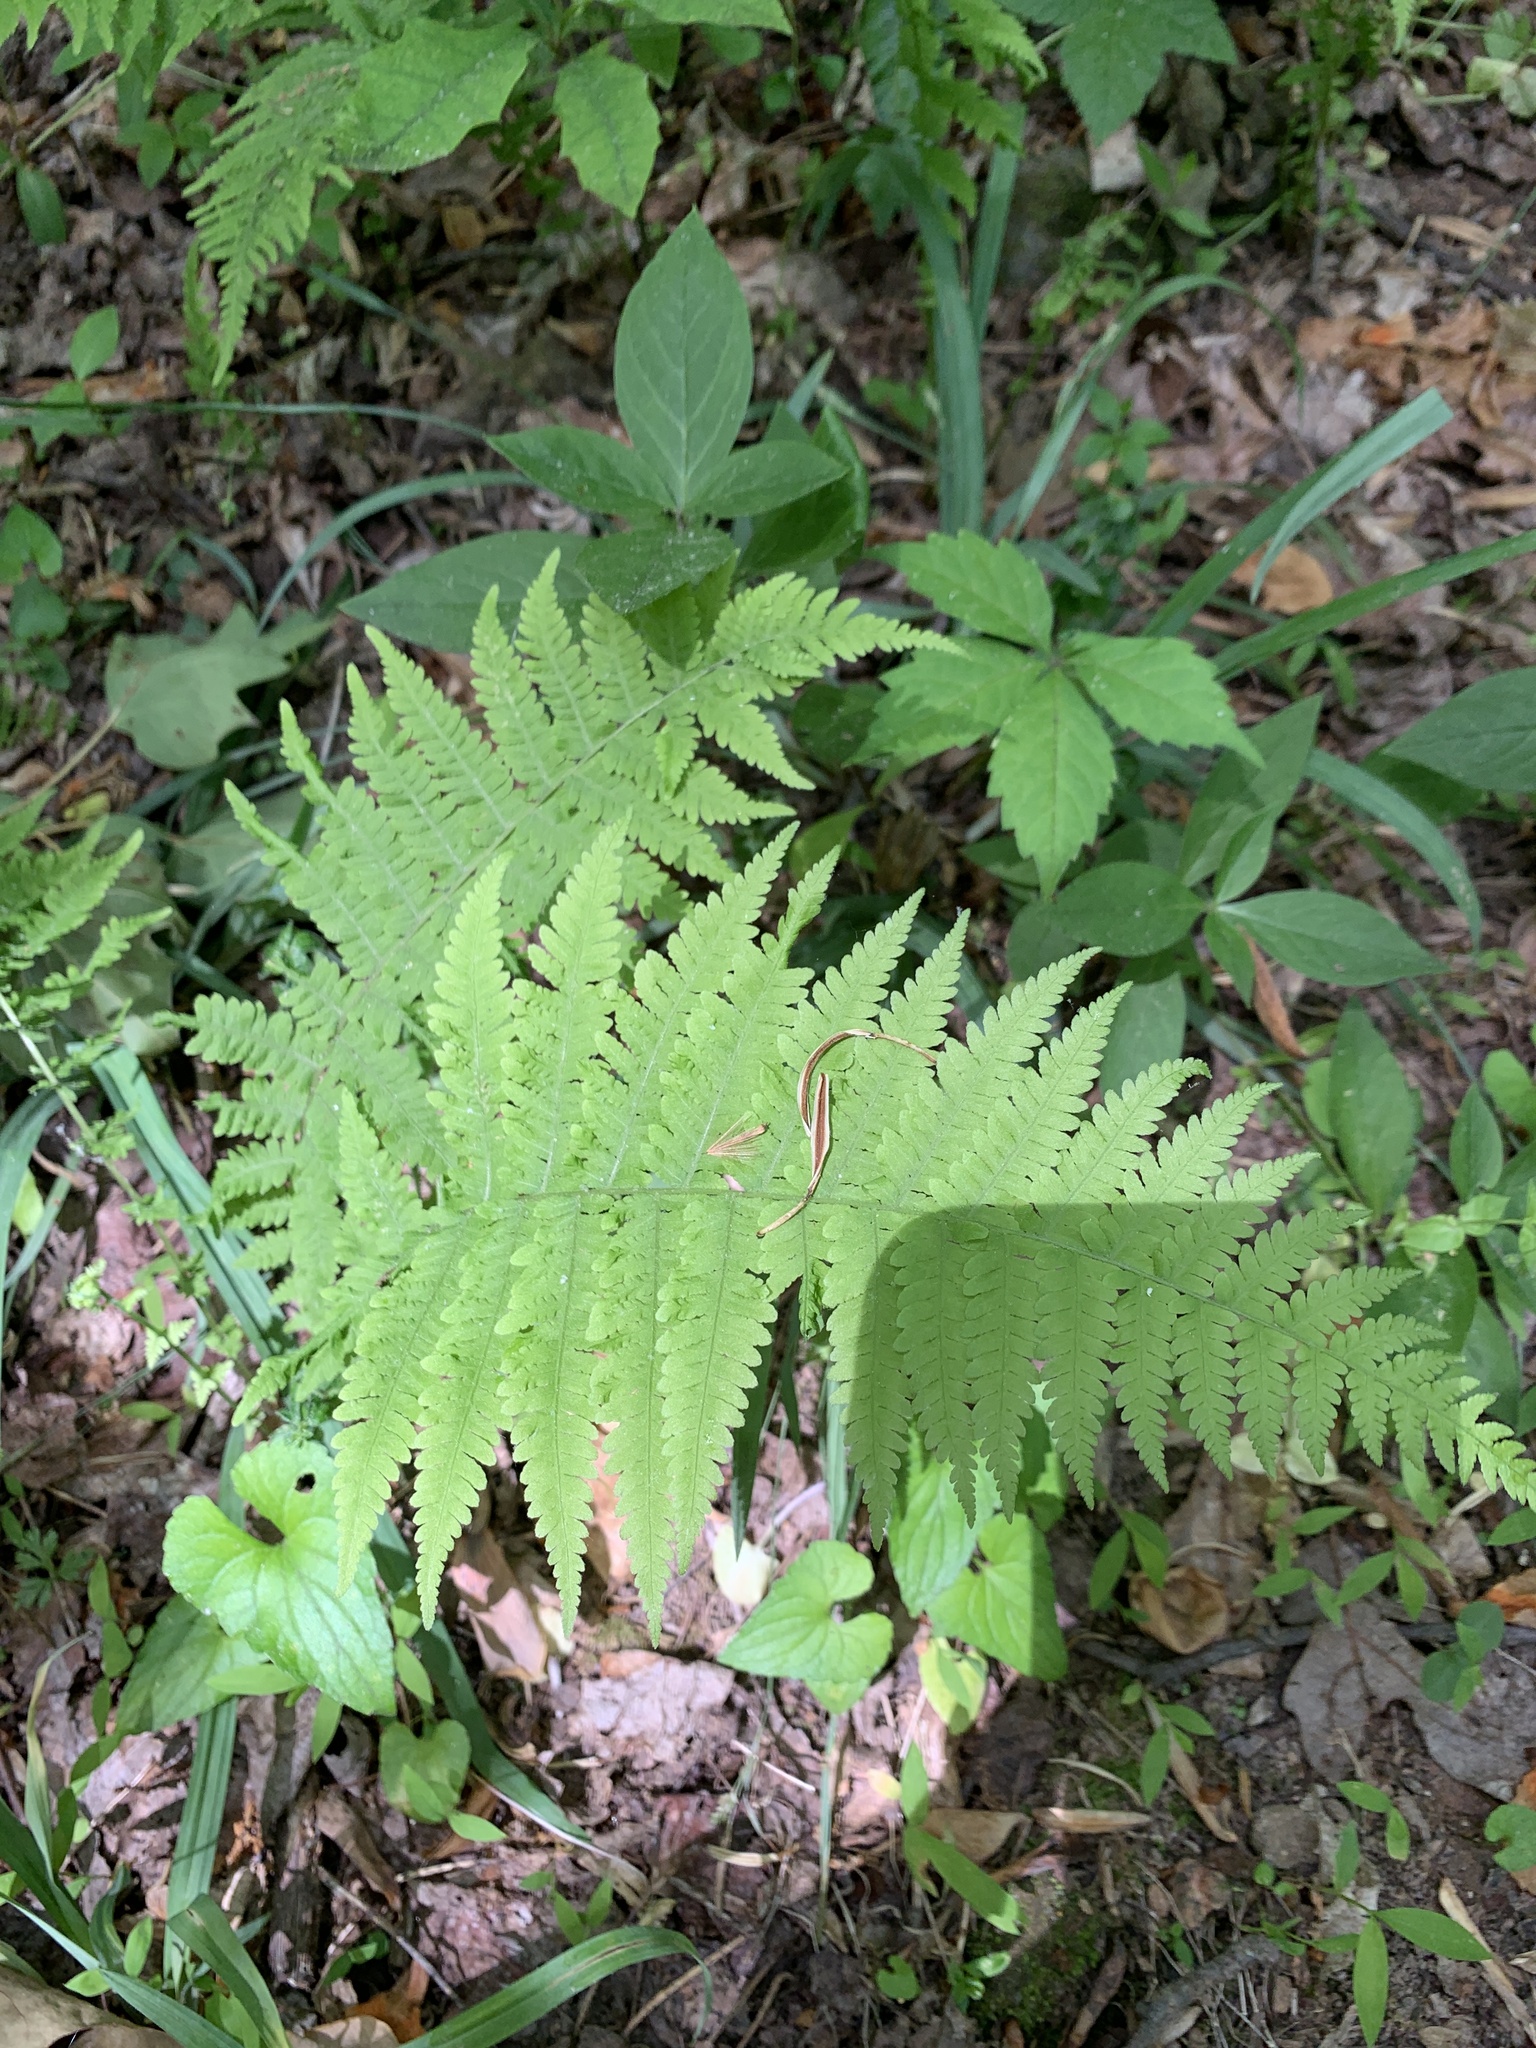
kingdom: Plantae
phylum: Tracheophyta
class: Polypodiopsida
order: Polypodiales
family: Thelypteridaceae
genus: Amauropelta
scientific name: Amauropelta noveboracensis
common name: New york fern
